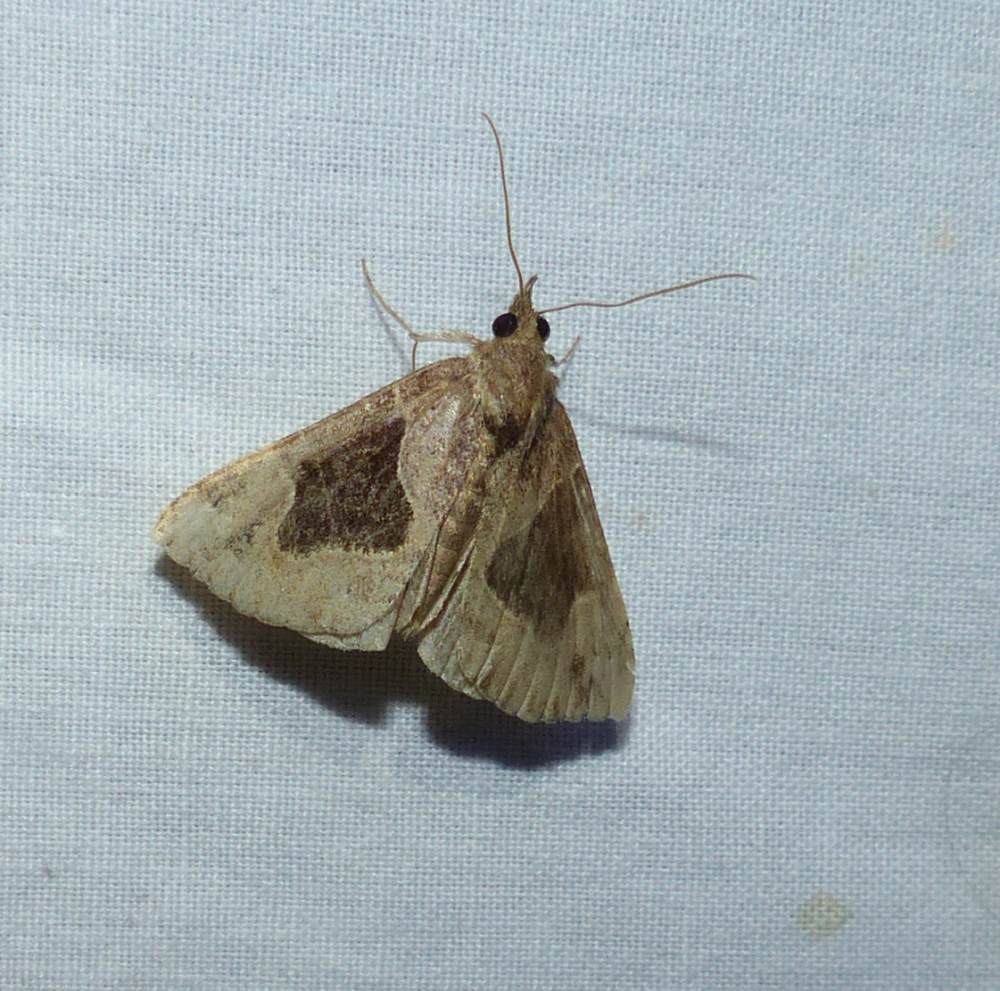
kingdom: Animalia
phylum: Arthropoda
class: Insecta
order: Lepidoptera
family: Erebidae
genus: Hypena
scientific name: Hypena manalis
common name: Flowing-line bomolocha moth
